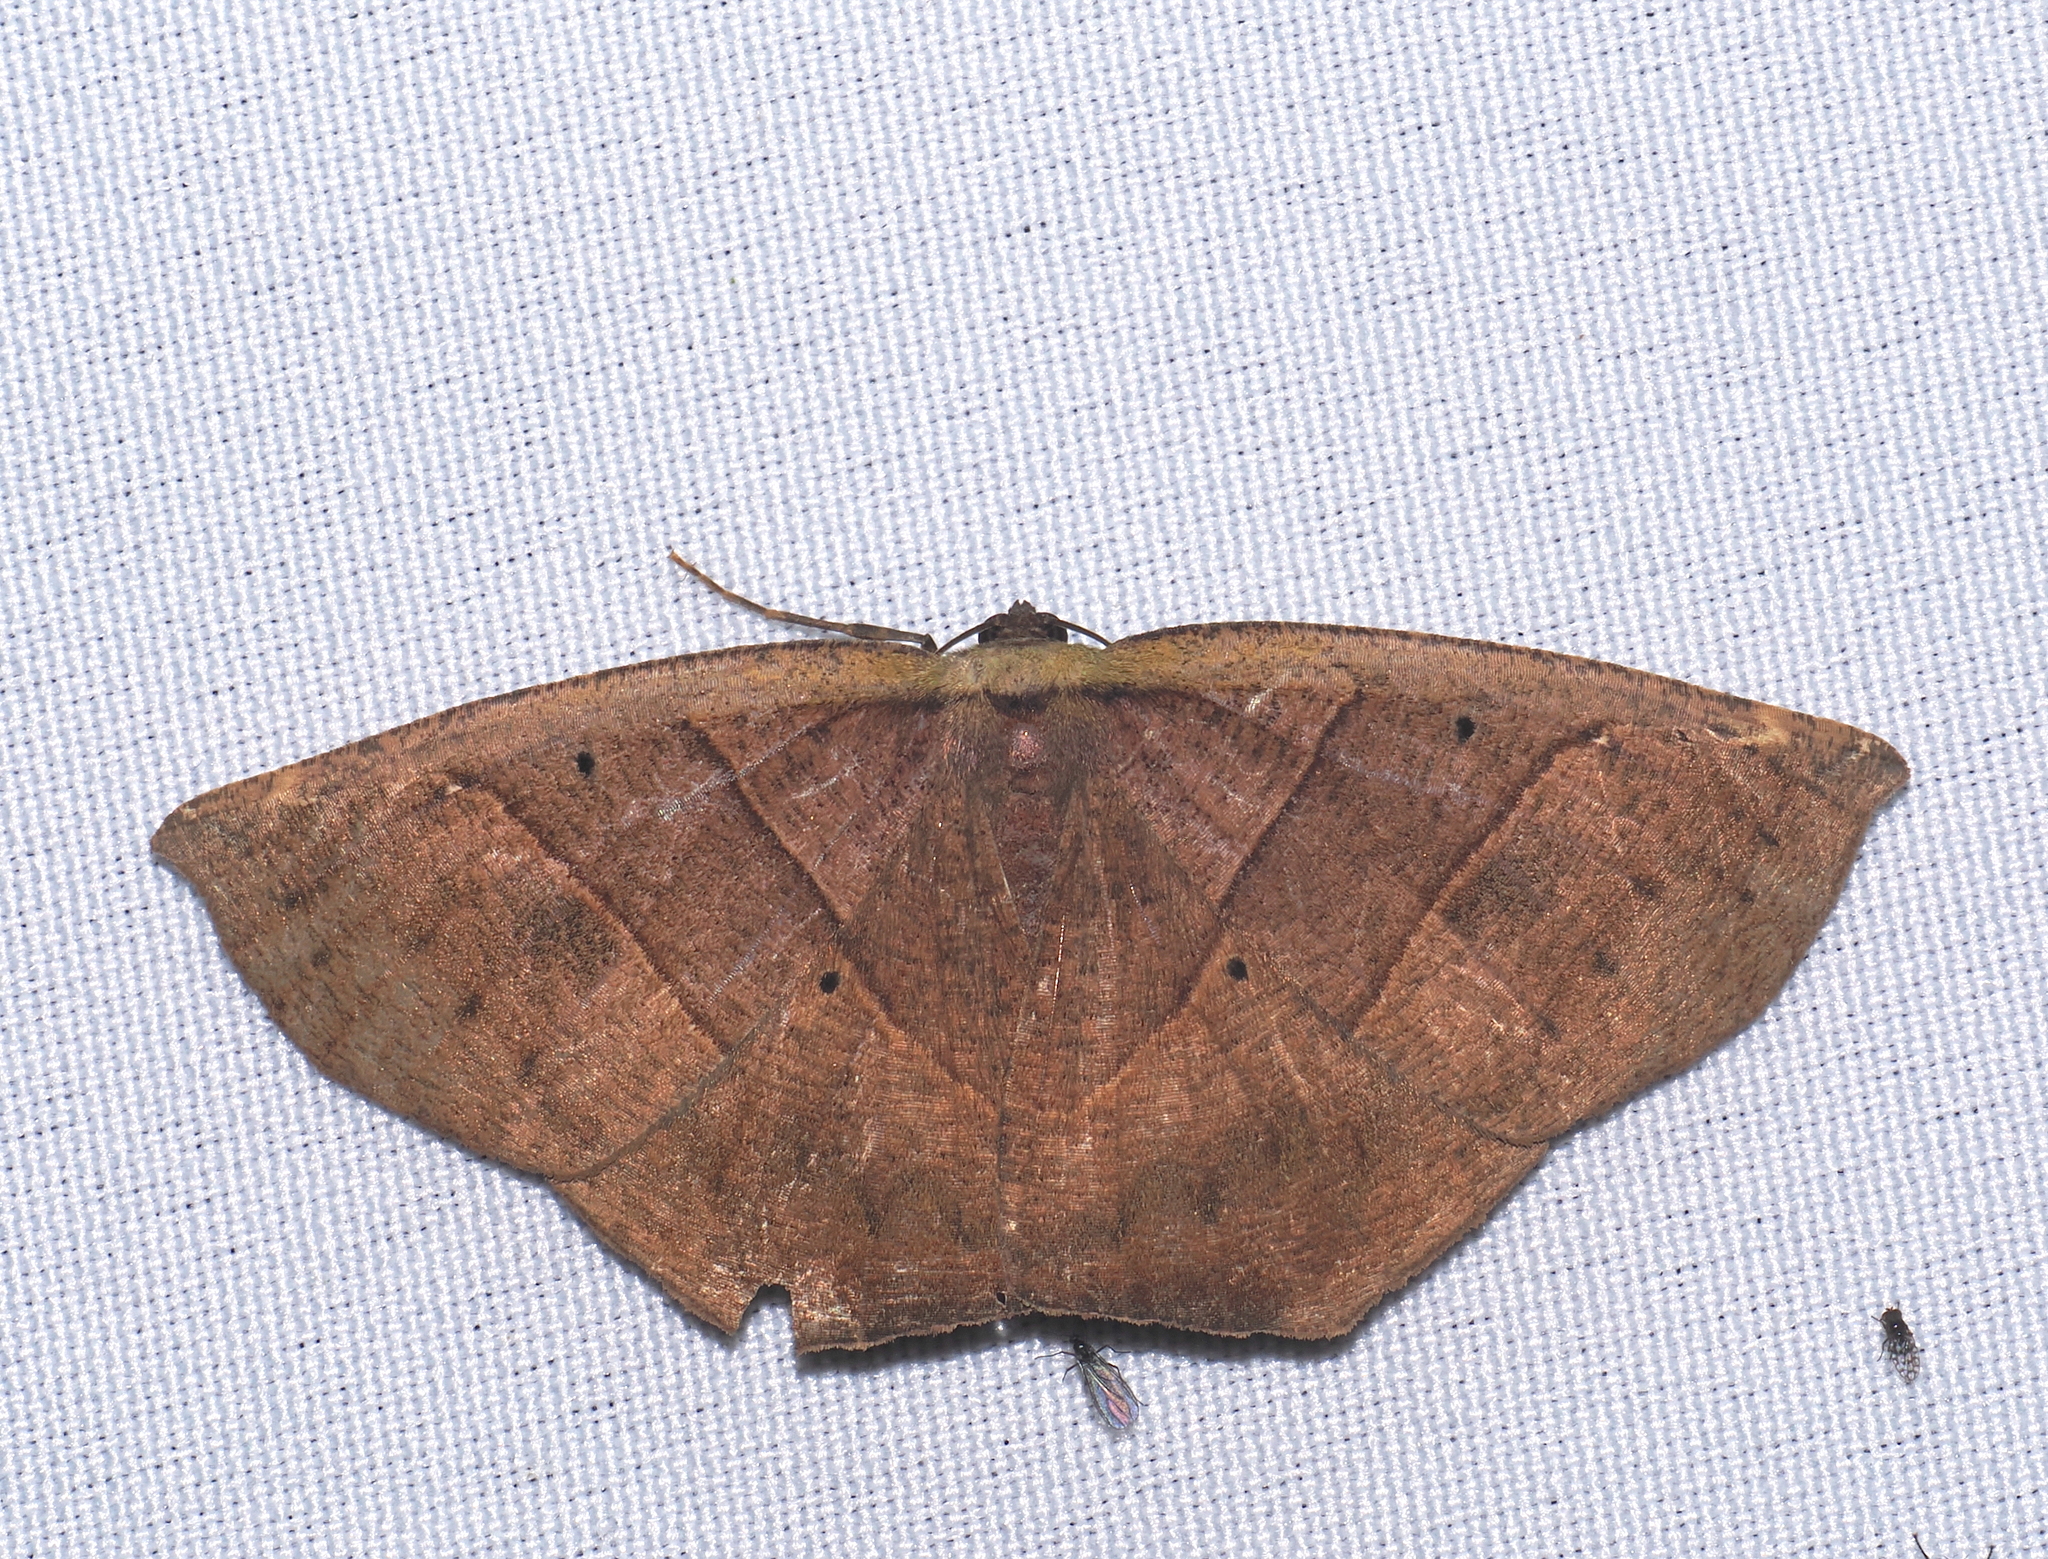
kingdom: Animalia
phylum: Arthropoda
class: Insecta
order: Lepidoptera
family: Geometridae
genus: Cimicodes
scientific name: Cimicodes clisthena
